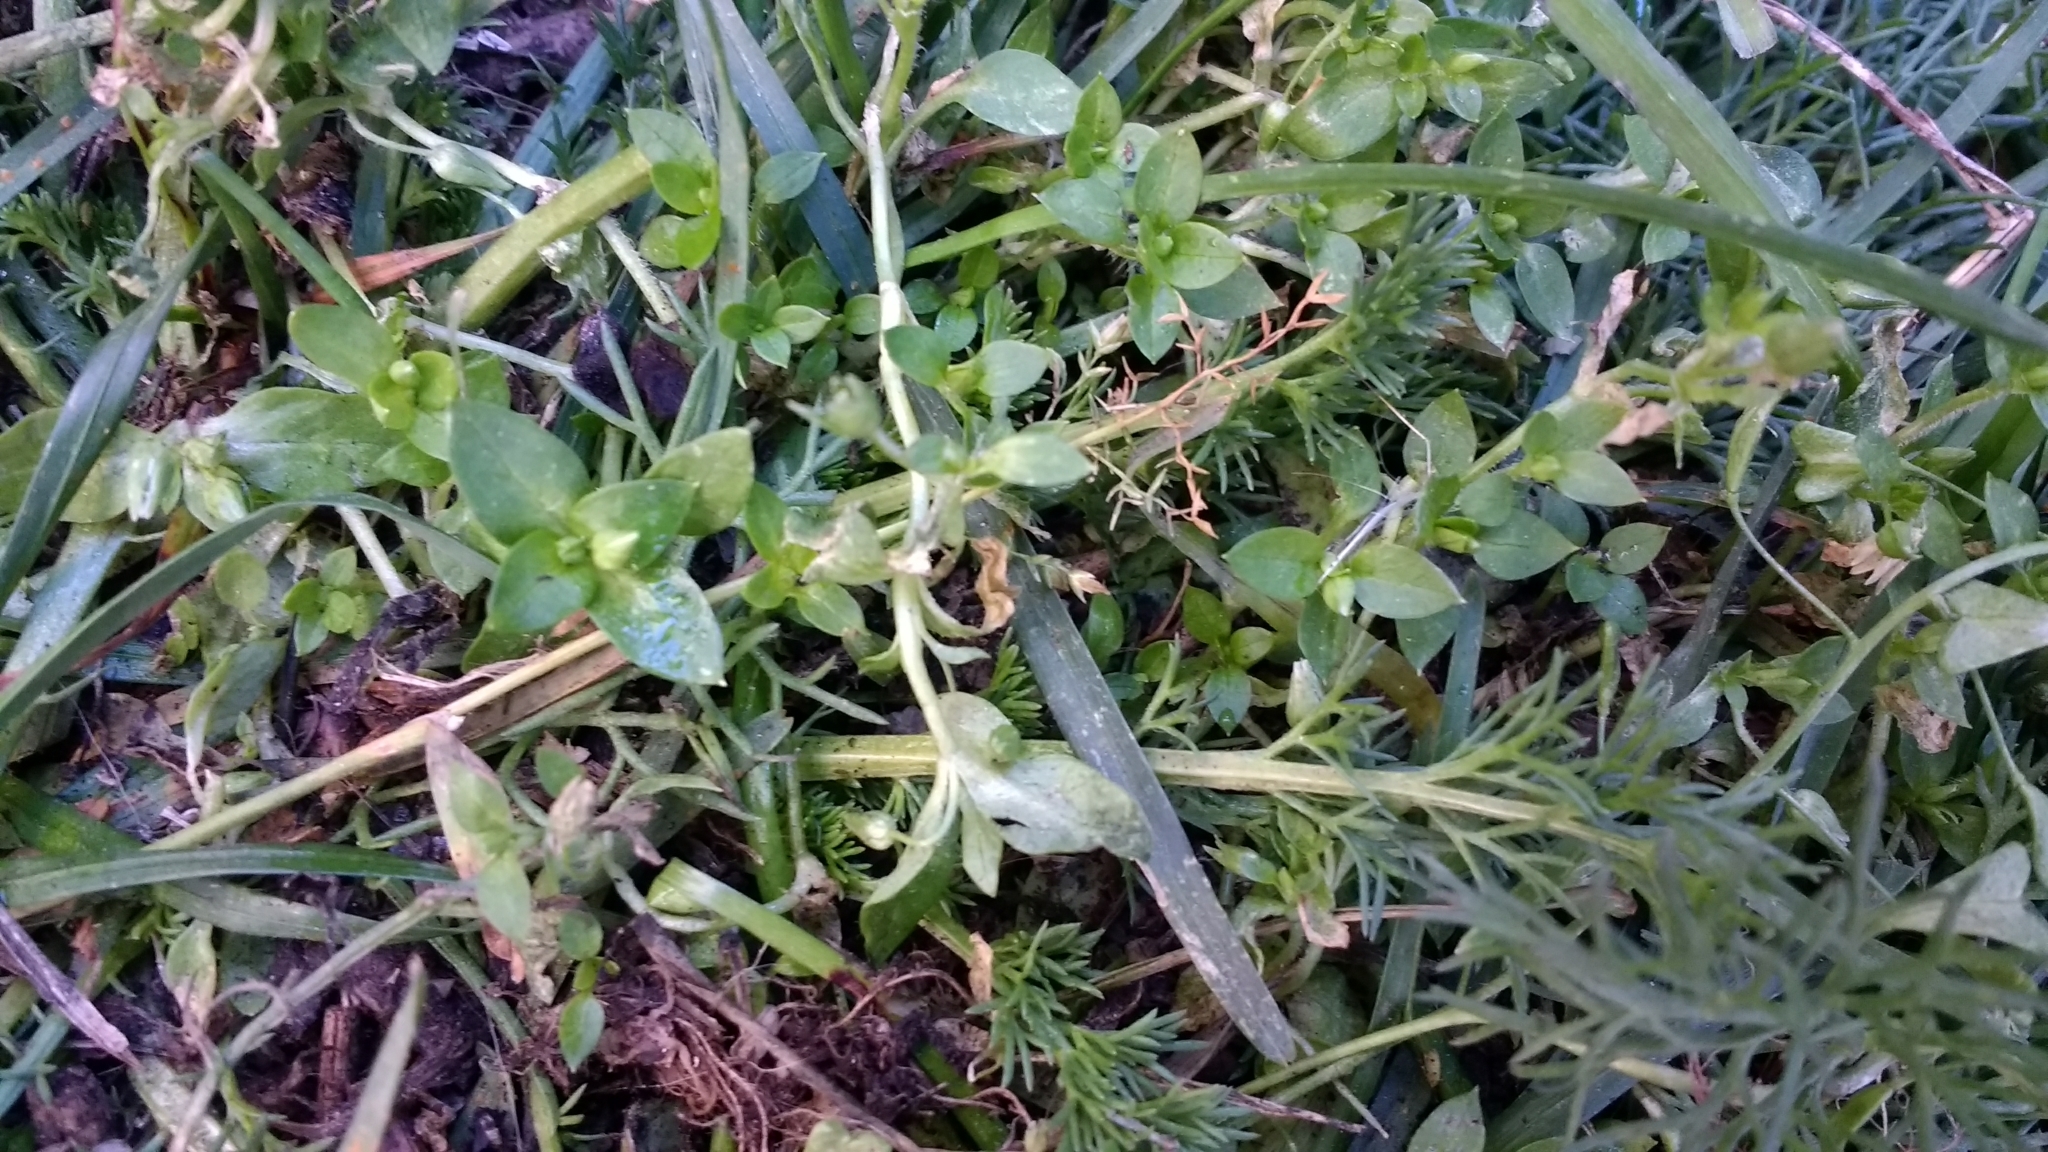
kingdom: Plantae
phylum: Tracheophyta
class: Magnoliopsida
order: Caryophyllales
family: Caryophyllaceae
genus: Stellaria
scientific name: Stellaria media
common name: Common chickweed
